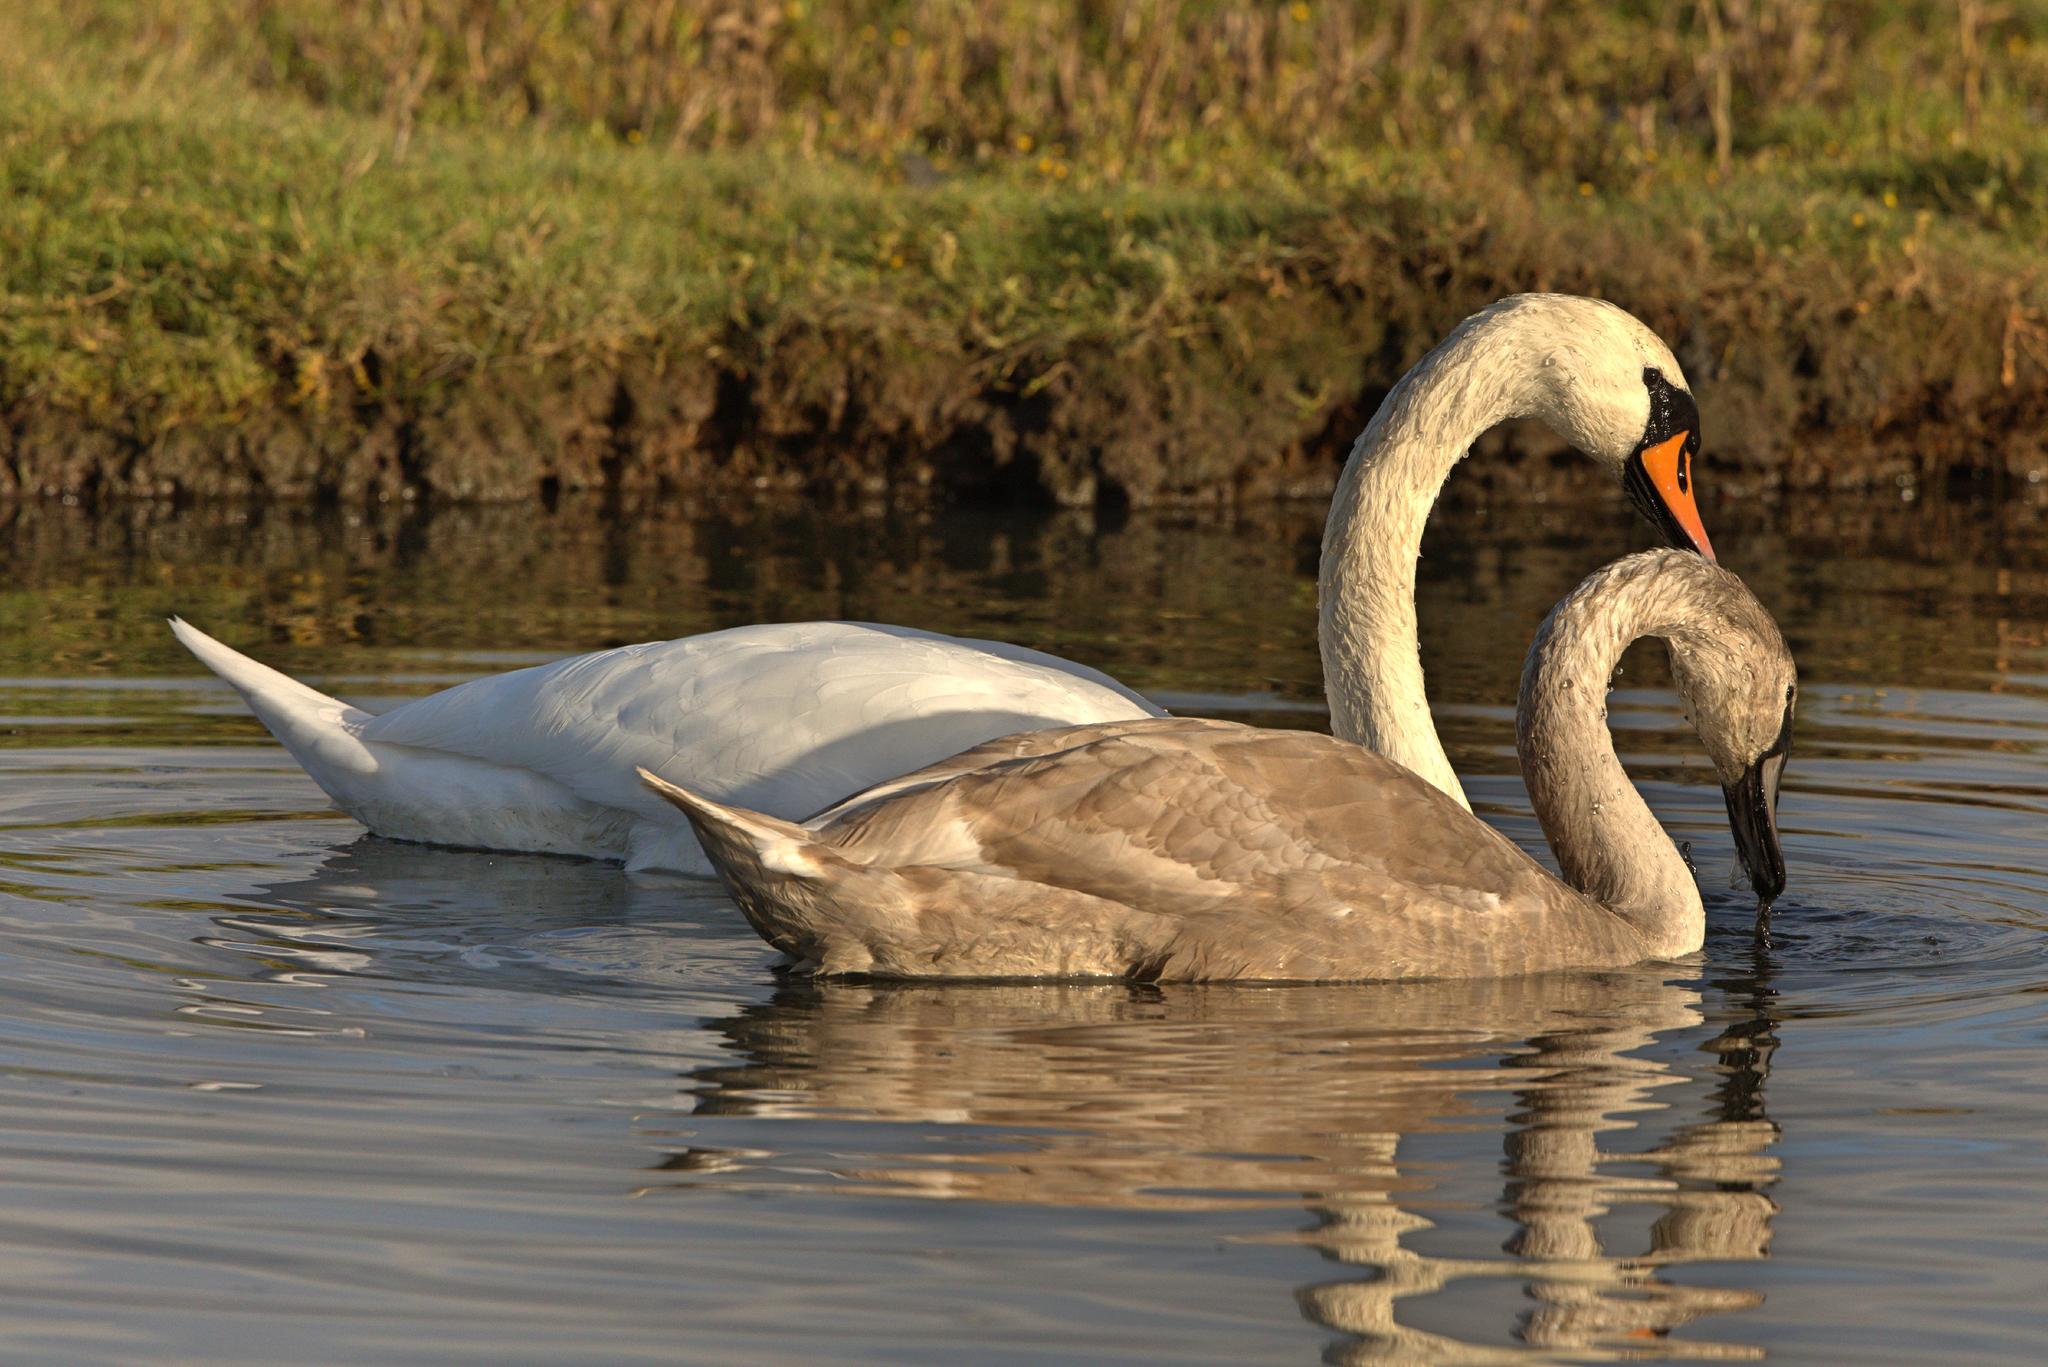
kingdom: Animalia
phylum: Chordata
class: Aves
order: Anseriformes
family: Anatidae
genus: Cygnus
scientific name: Cygnus olor
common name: Mute swan
